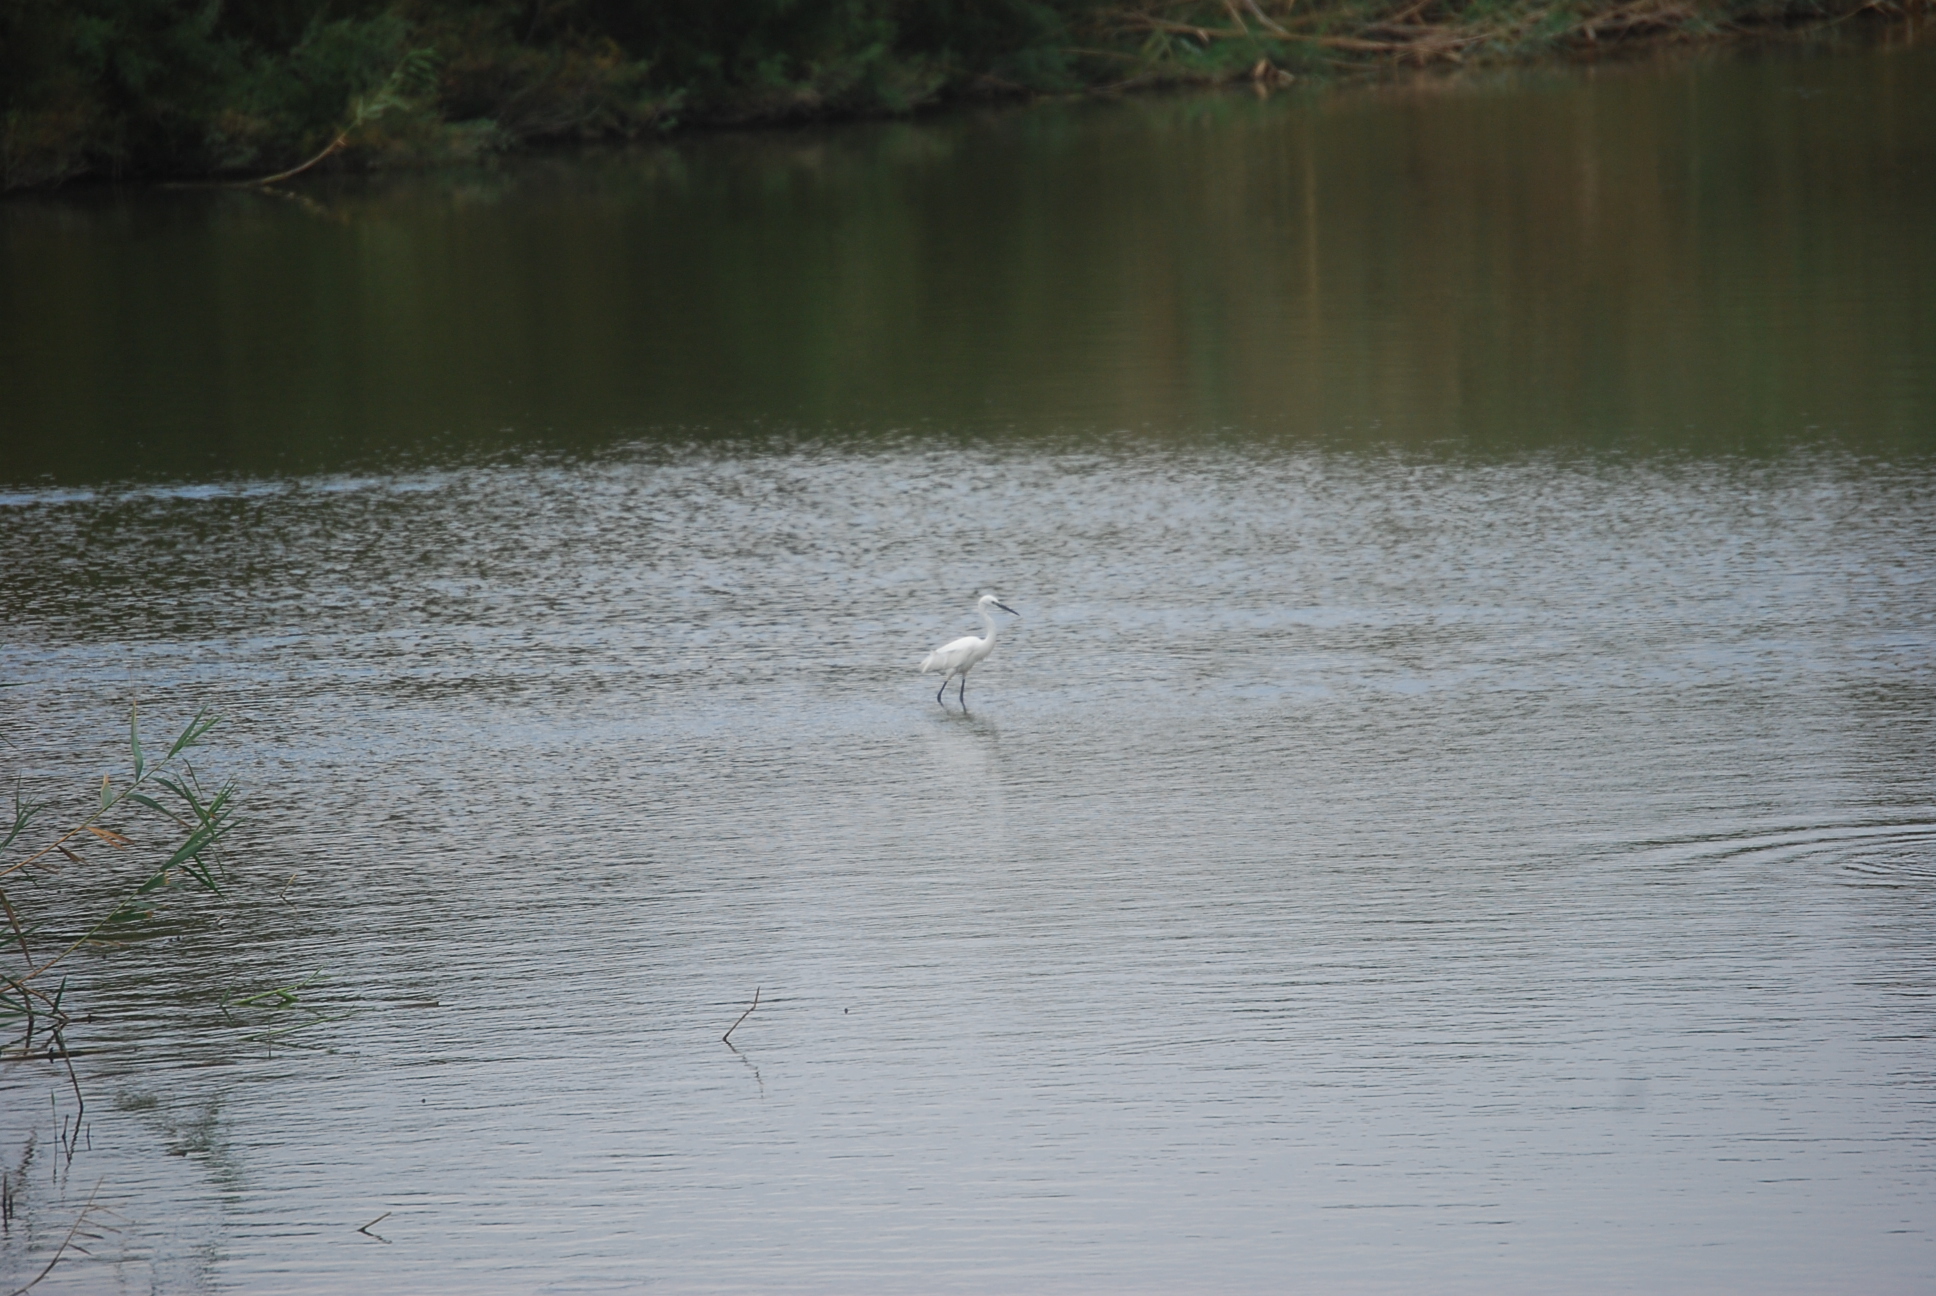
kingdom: Animalia
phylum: Chordata
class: Aves
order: Pelecaniformes
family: Ardeidae
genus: Egretta
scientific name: Egretta garzetta
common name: Little egret
